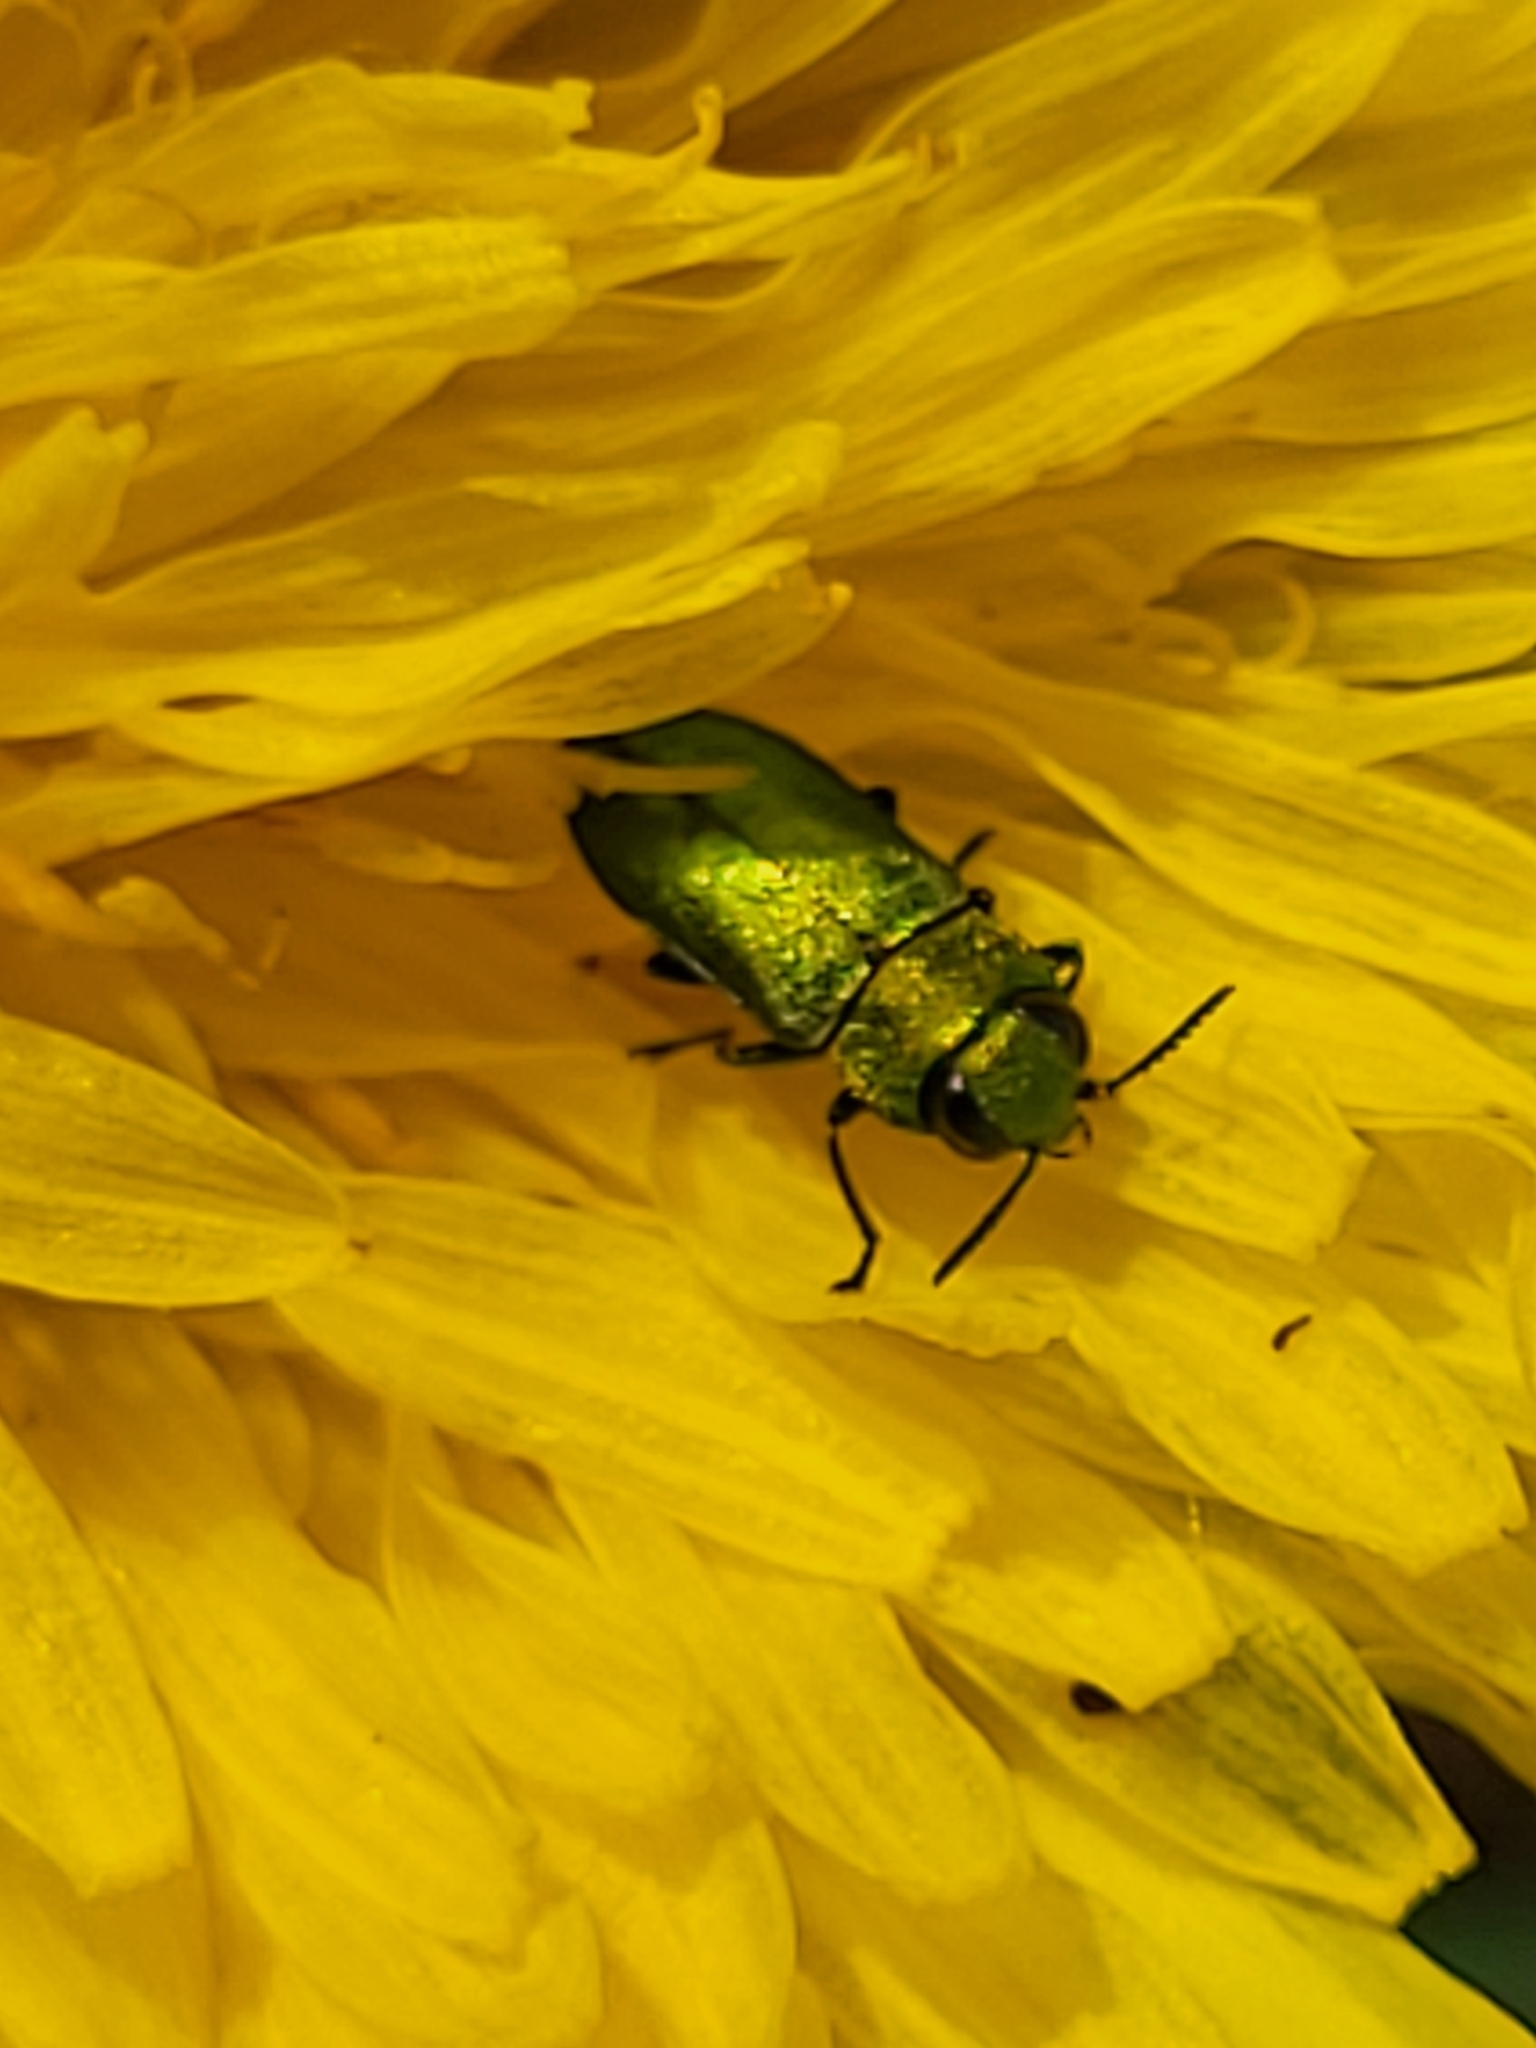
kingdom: Animalia
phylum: Arthropoda
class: Insecta
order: Coleoptera
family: Buprestidae
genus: Anthaxia
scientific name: Anthaxia nitidula
